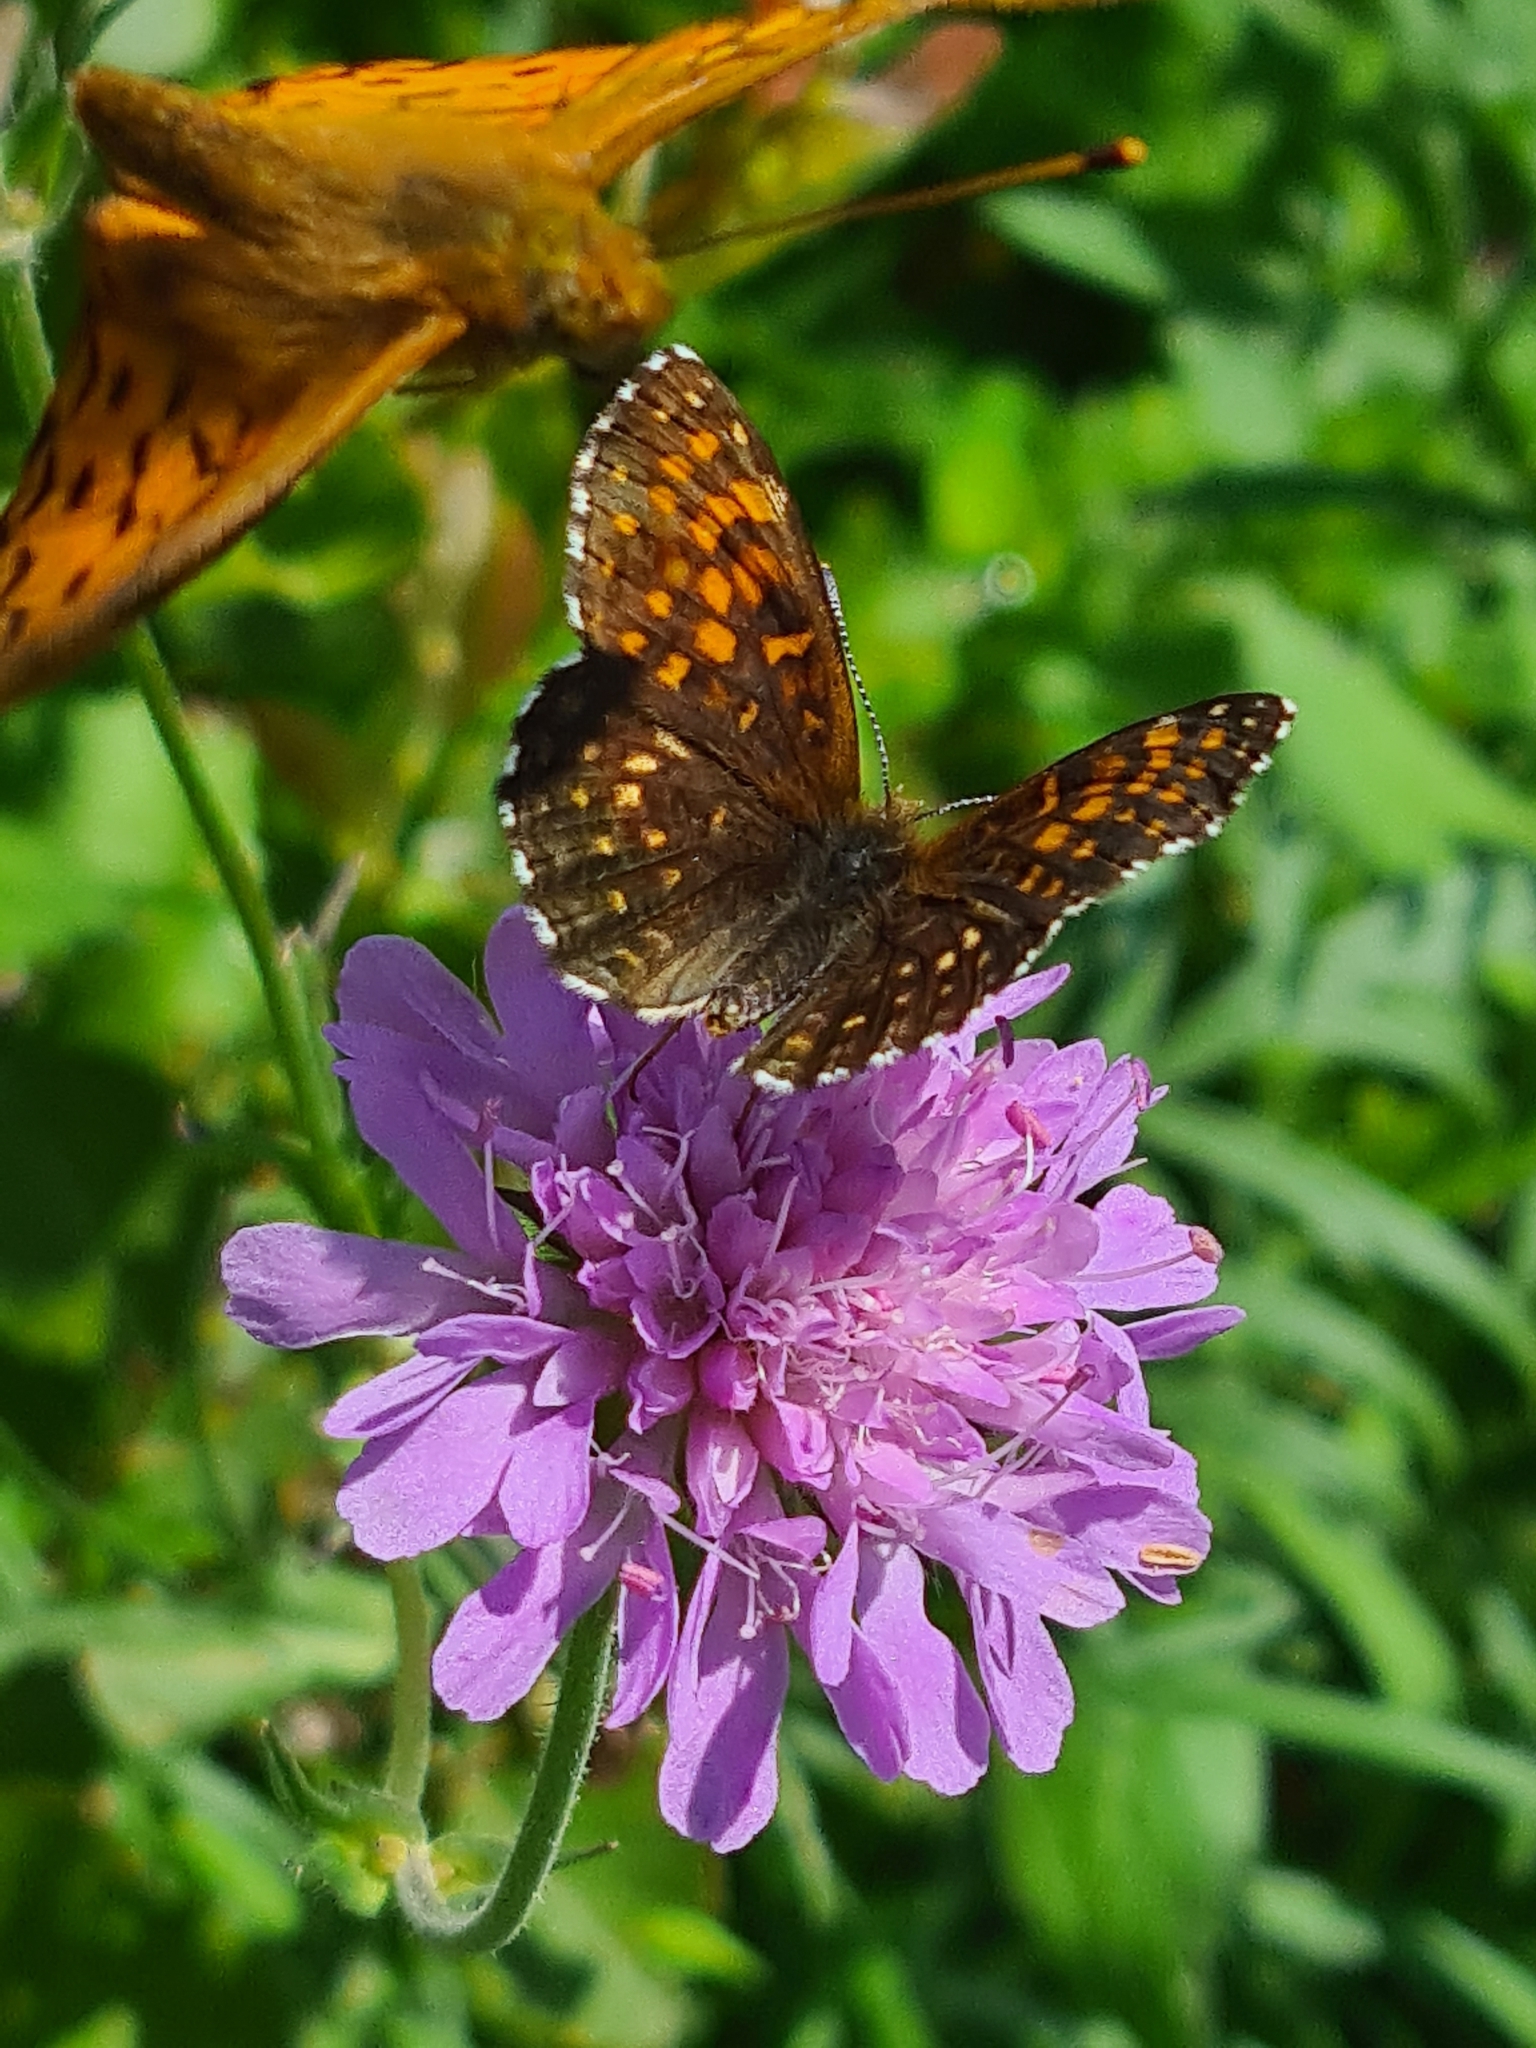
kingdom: Animalia
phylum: Arthropoda
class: Insecta
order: Lepidoptera
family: Nymphalidae
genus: Melitaea
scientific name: Melitaea diamina
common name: False heath fritillary
